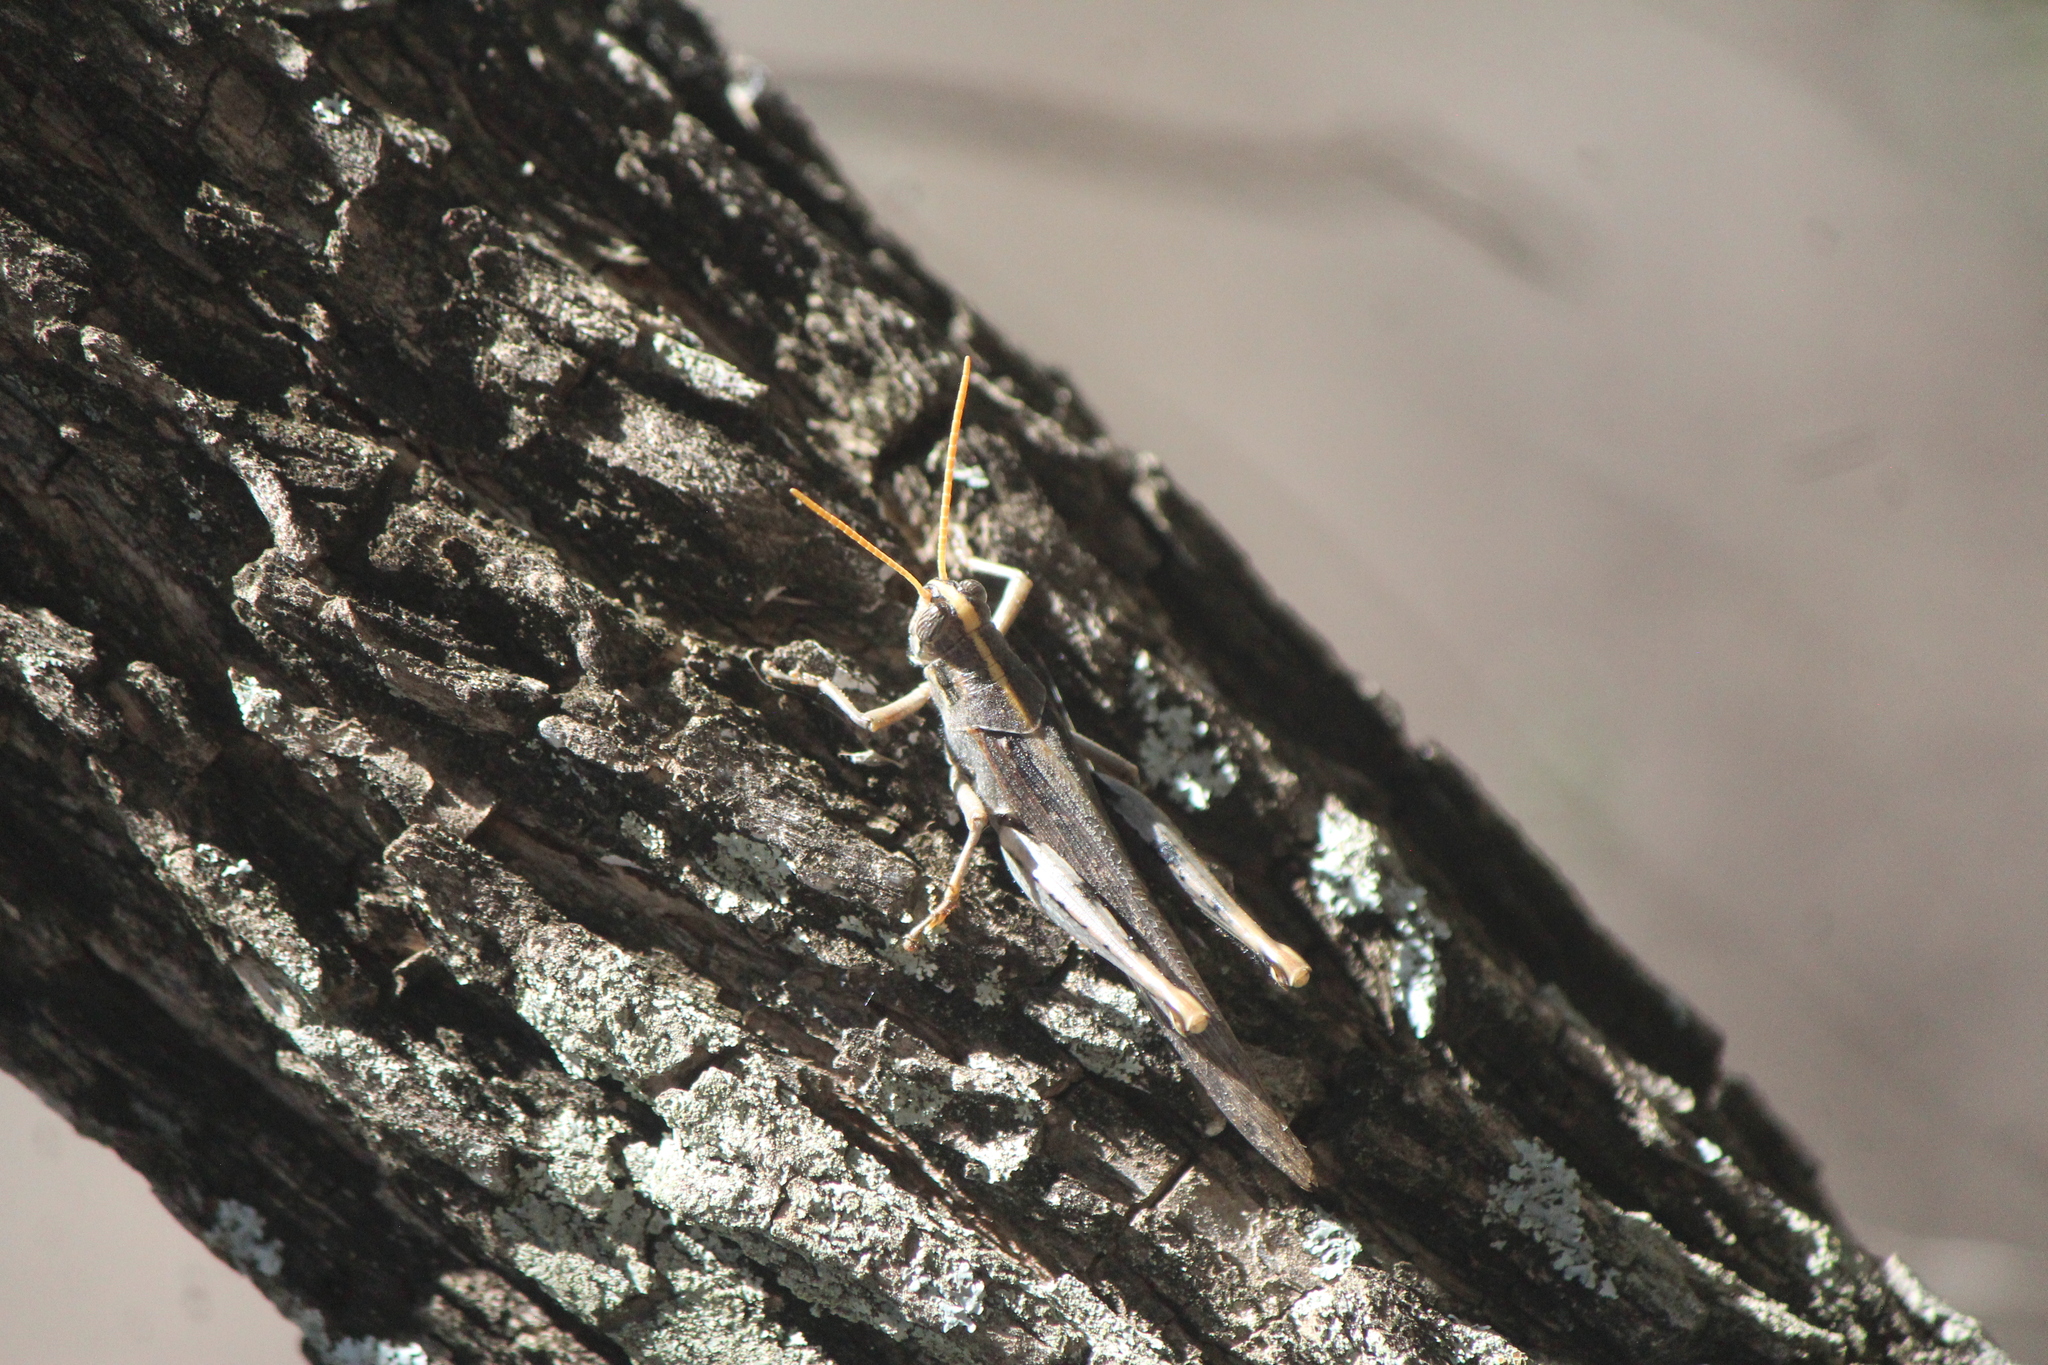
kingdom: Animalia
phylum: Arthropoda
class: Insecta
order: Orthoptera
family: Acrididae
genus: Schistocerca
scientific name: Schistocerca nitens
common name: Vagrant grasshopper
